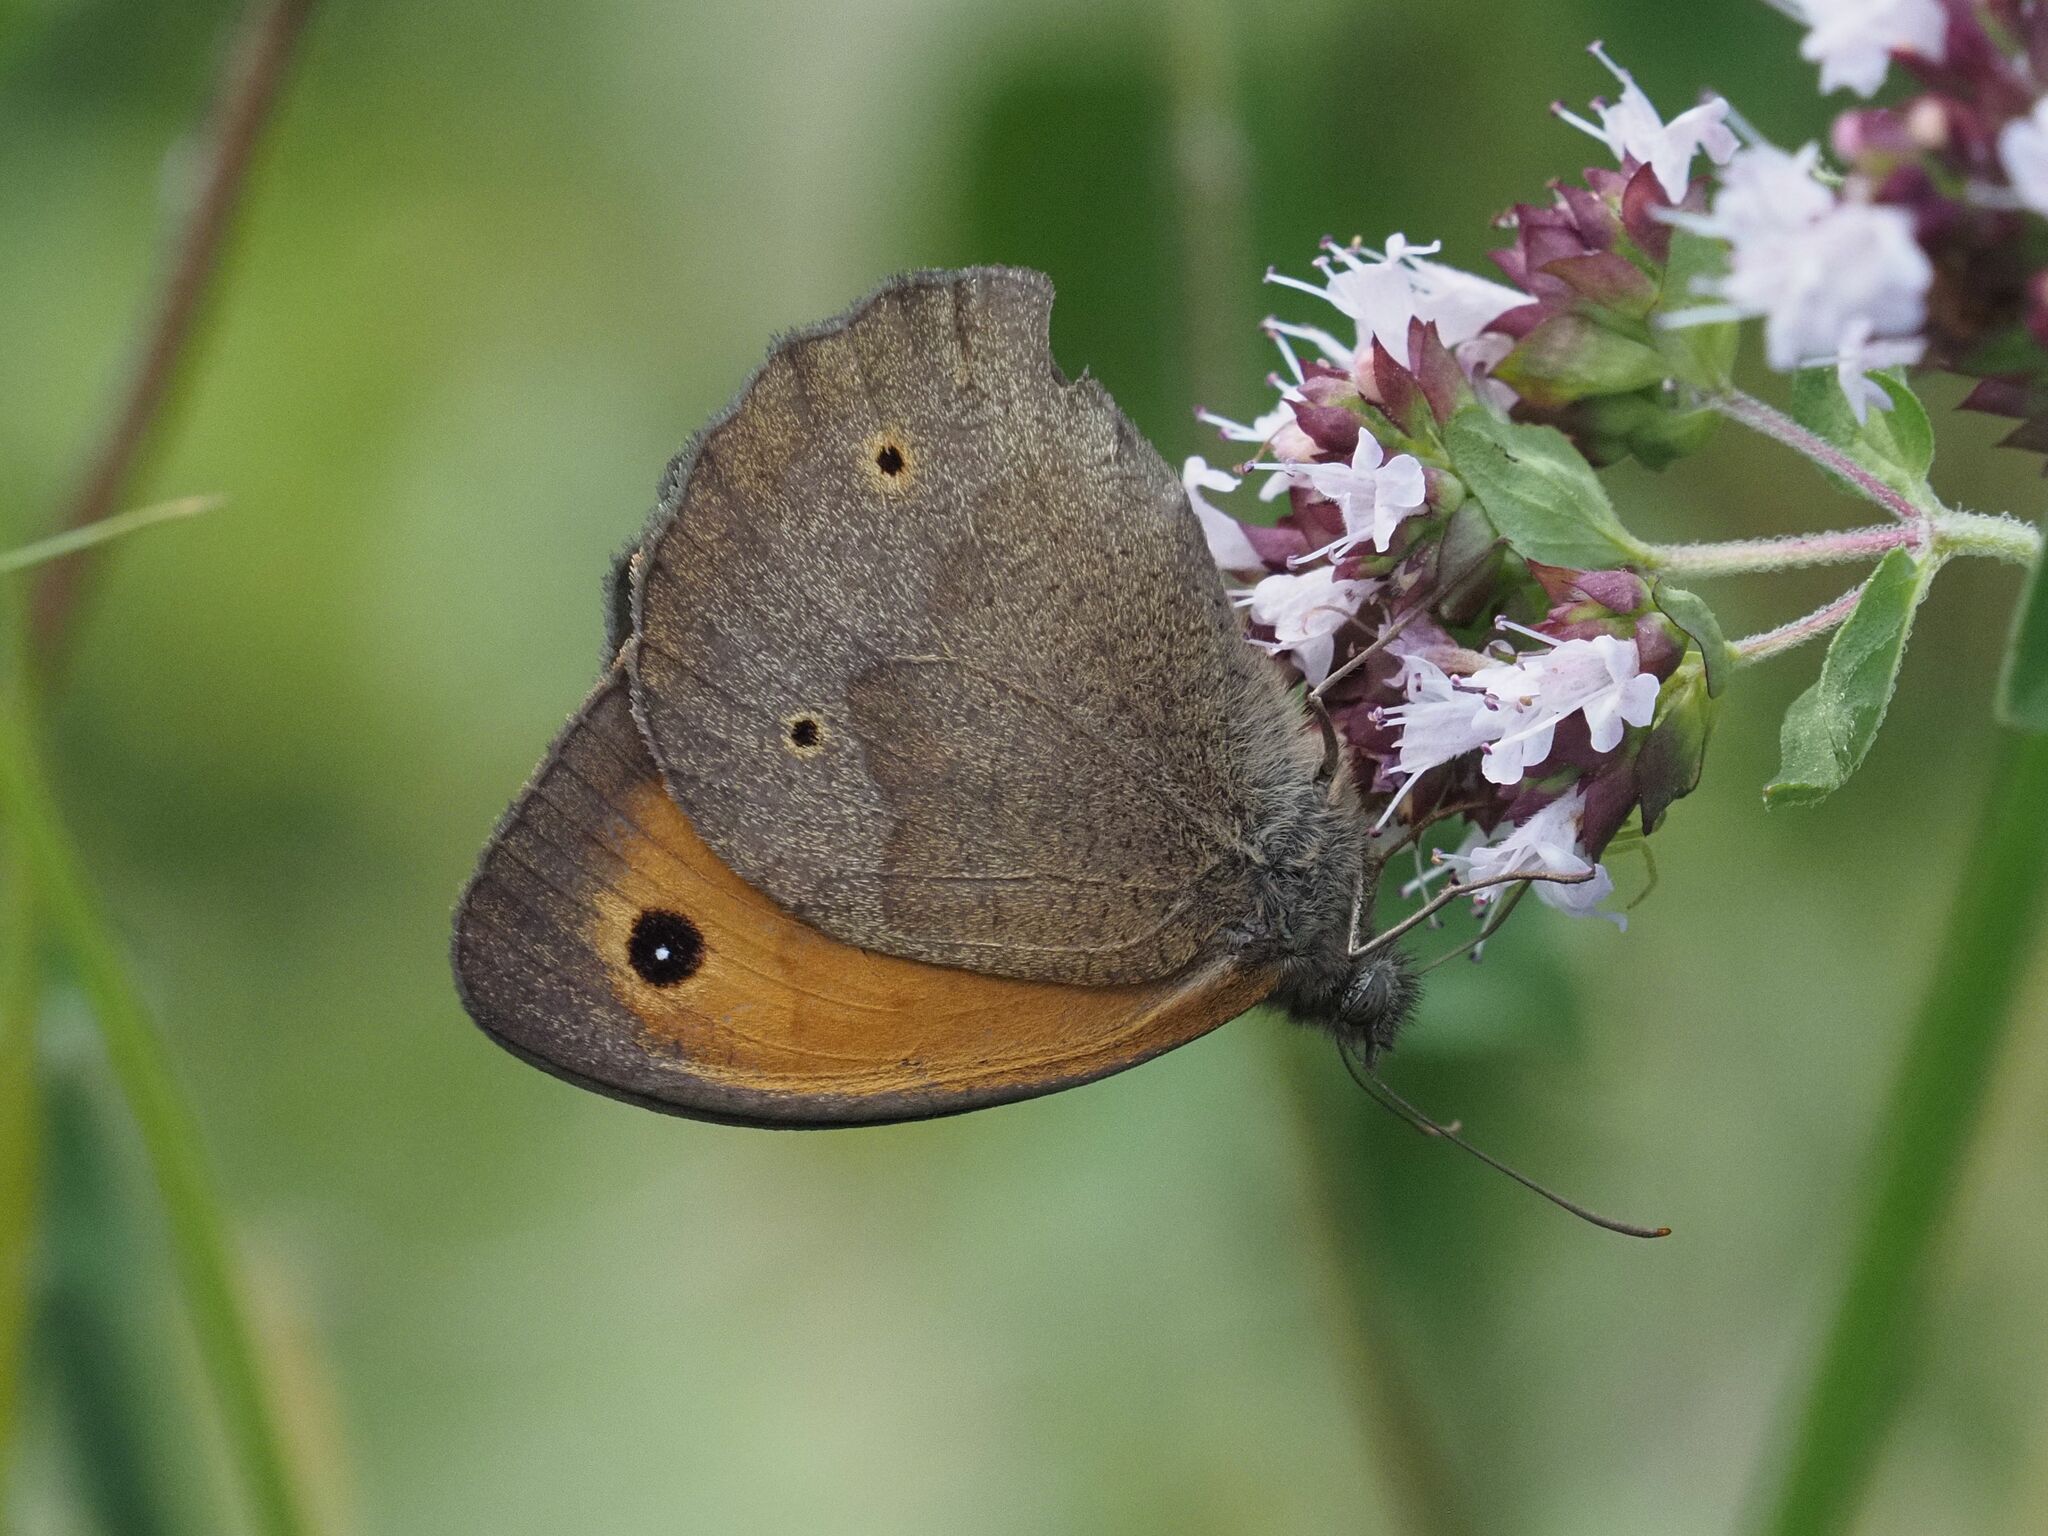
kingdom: Animalia
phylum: Arthropoda
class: Insecta
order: Lepidoptera
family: Nymphalidae
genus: Maniola
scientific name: Maniola jurtina
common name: Meadow brown
